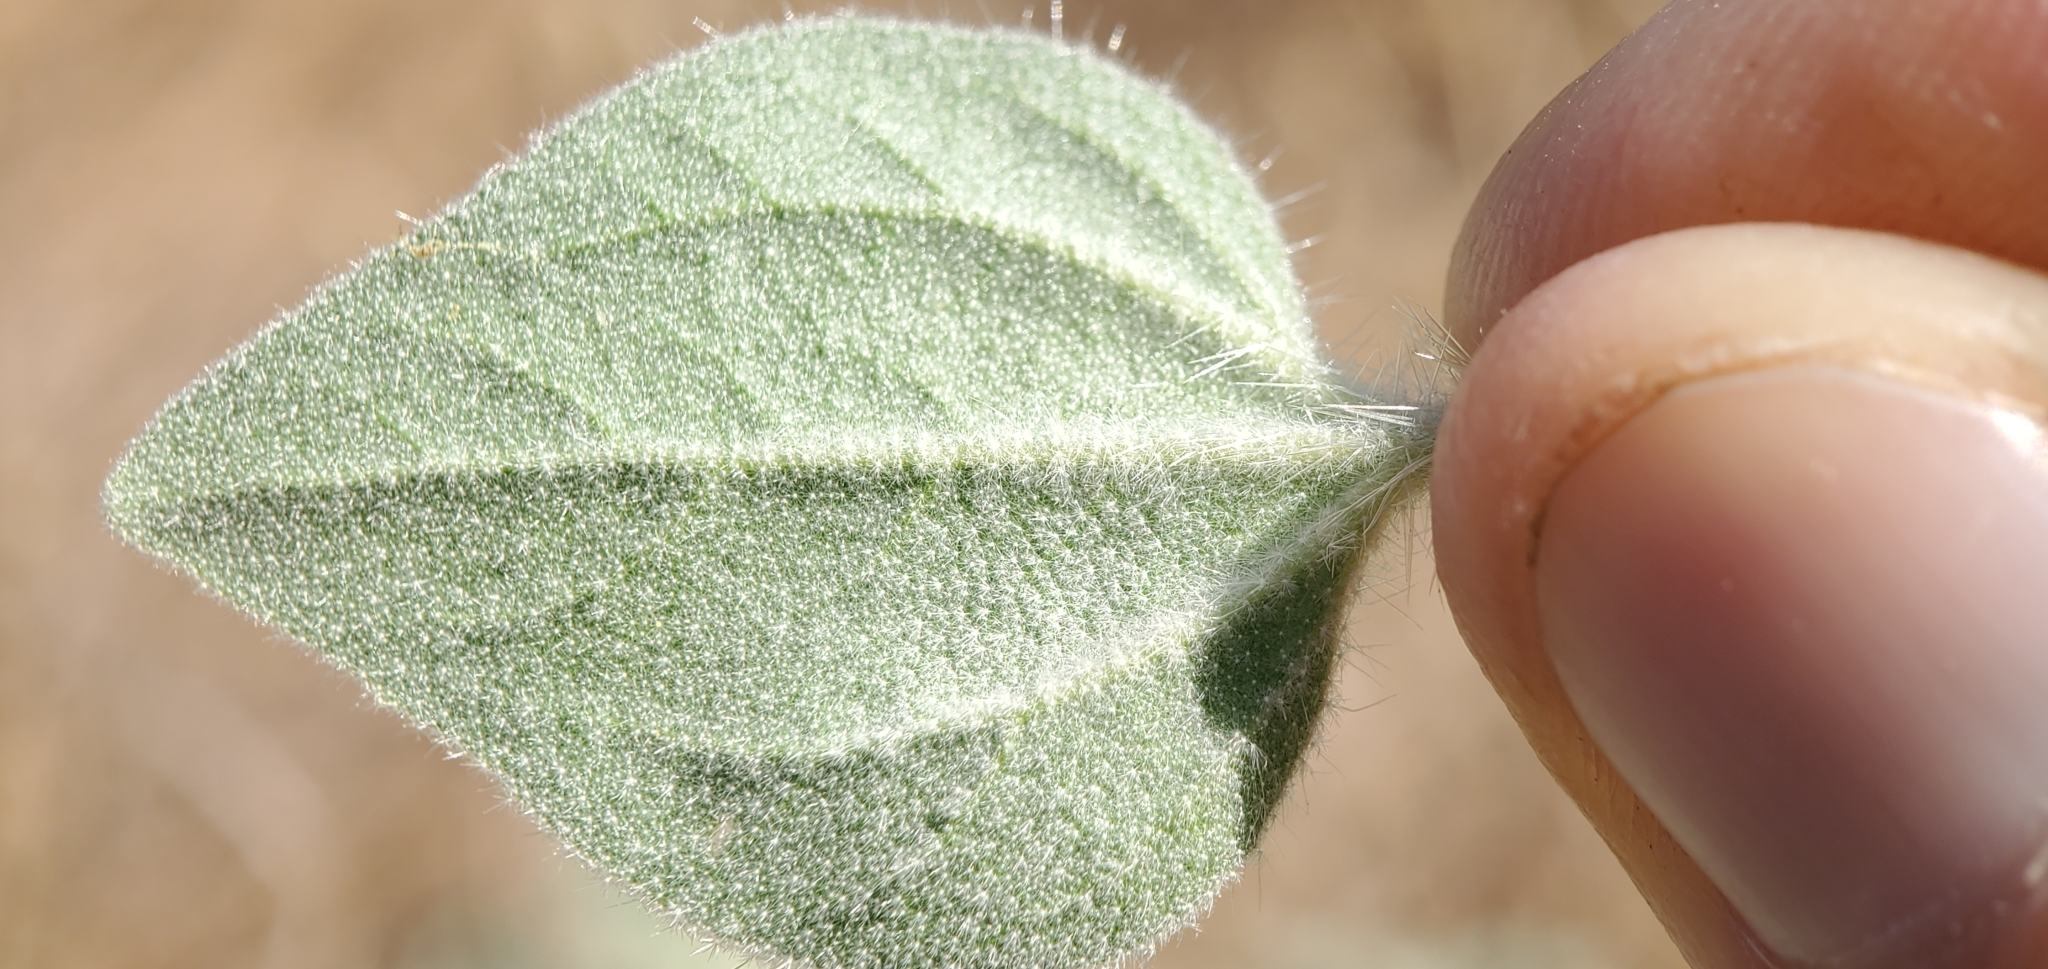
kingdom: Plantae
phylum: Tracheophyta
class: Magnoliopsida
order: Malpighiales
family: Euphorbiaceae
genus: Croton
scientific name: Croton setiger
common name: Dove weed
